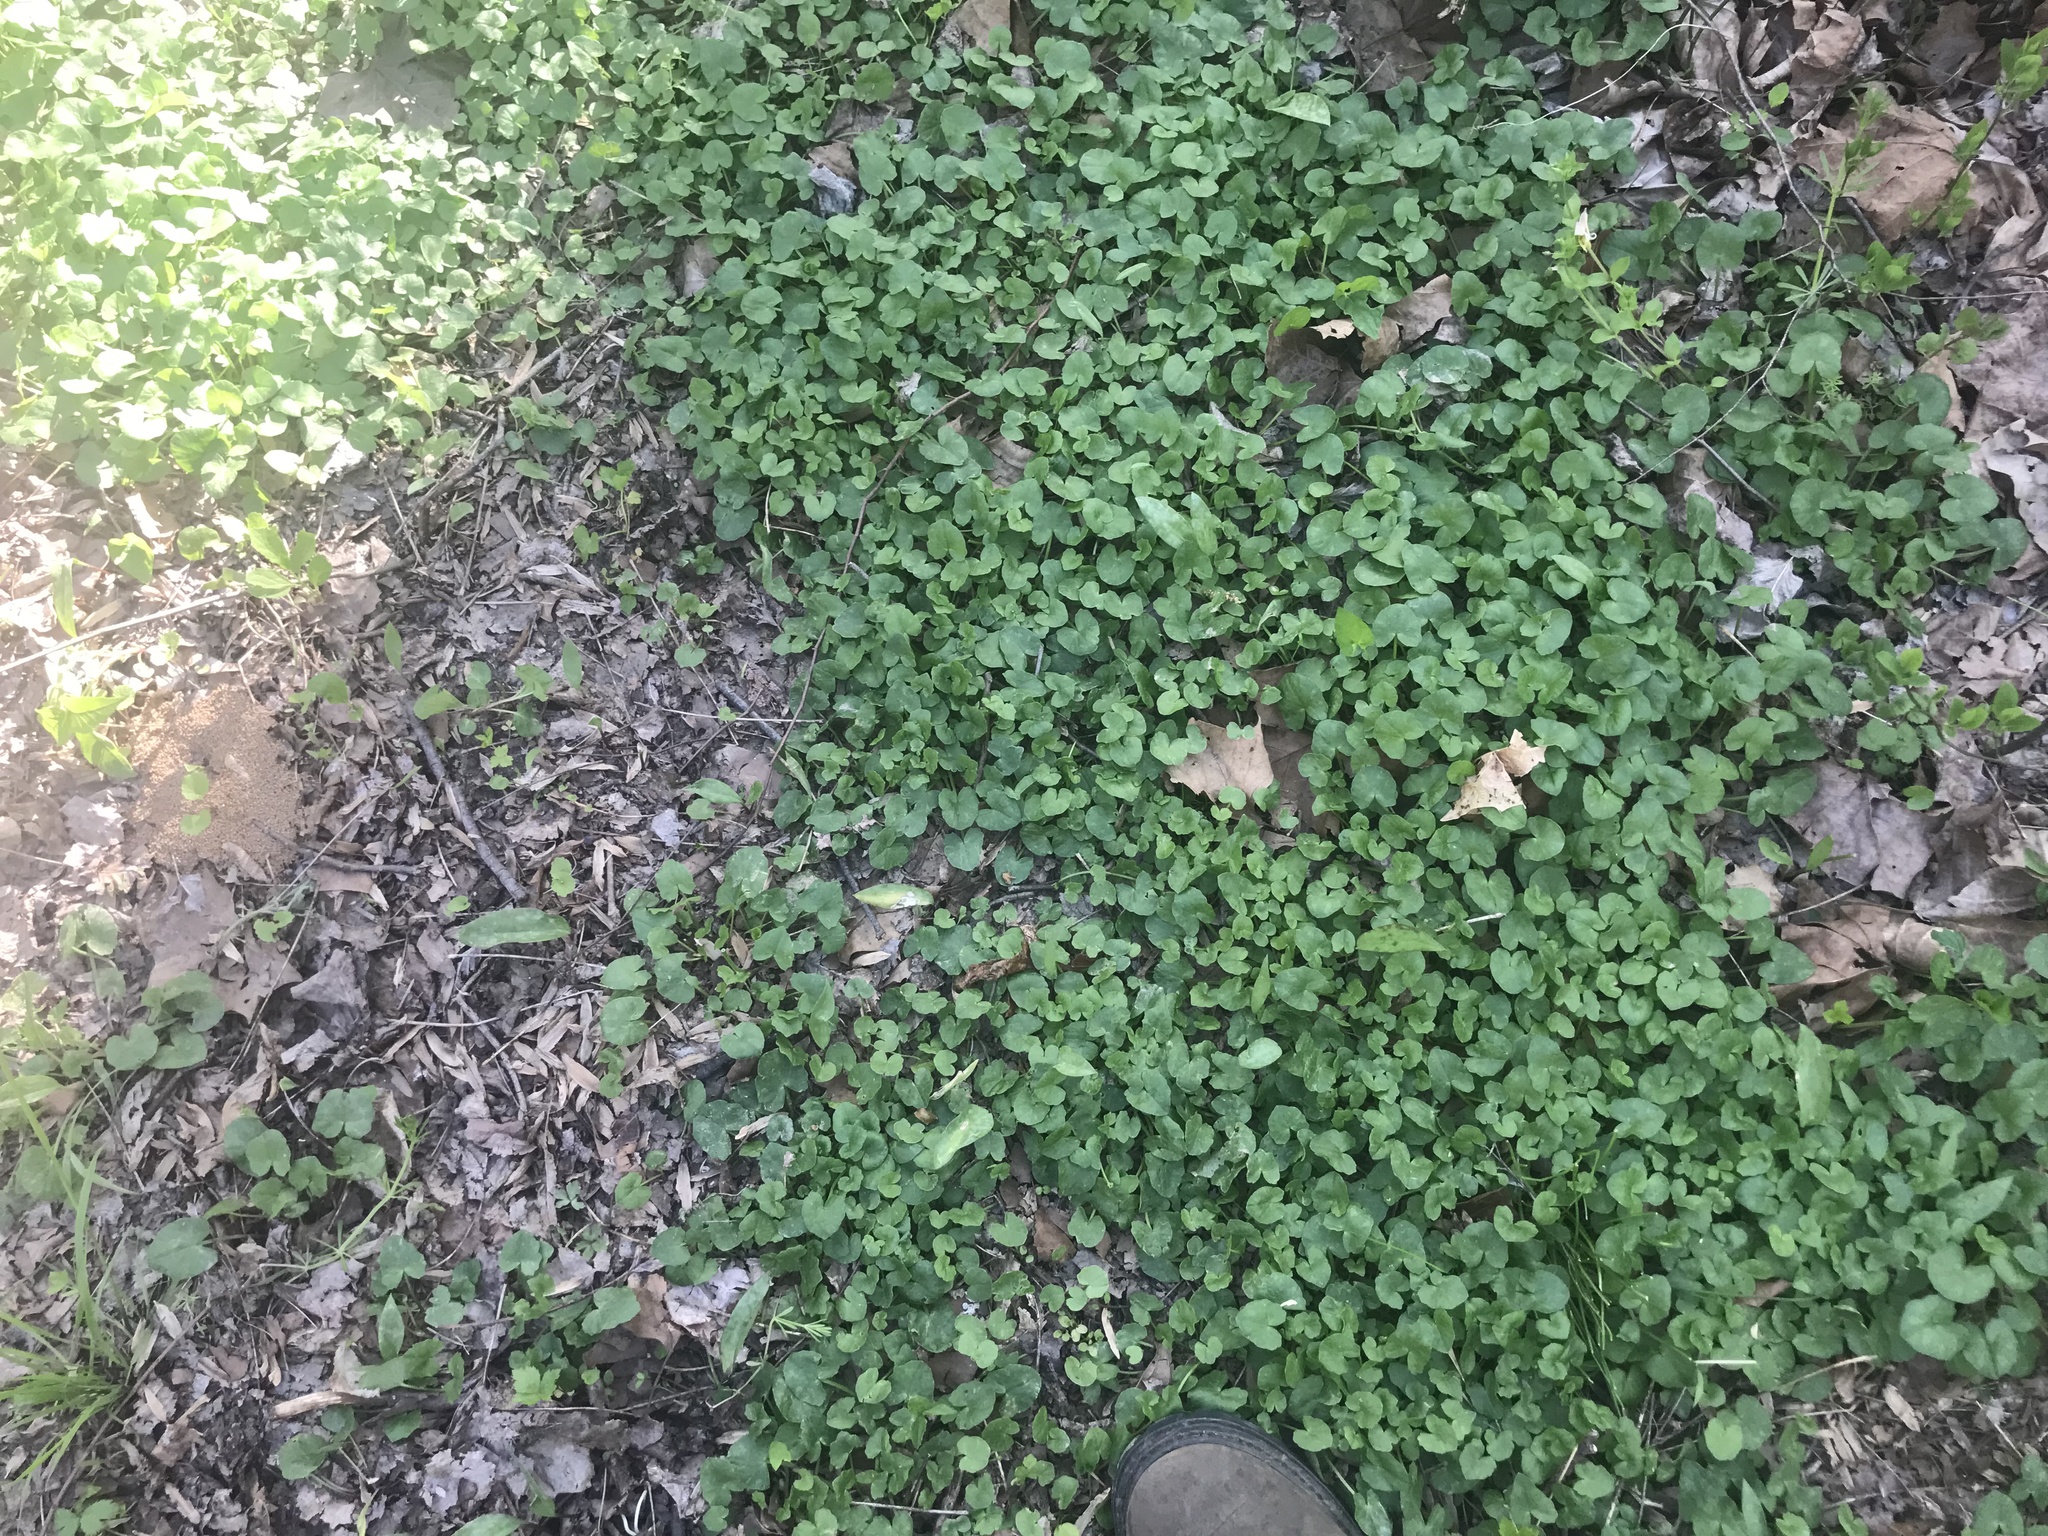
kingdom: Plantae
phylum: Tracheophyta
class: Magnoliopsida
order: Ranunculales
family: Ranunculaceae
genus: Ficaria
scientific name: Ficaria verna
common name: Lesser celandine
